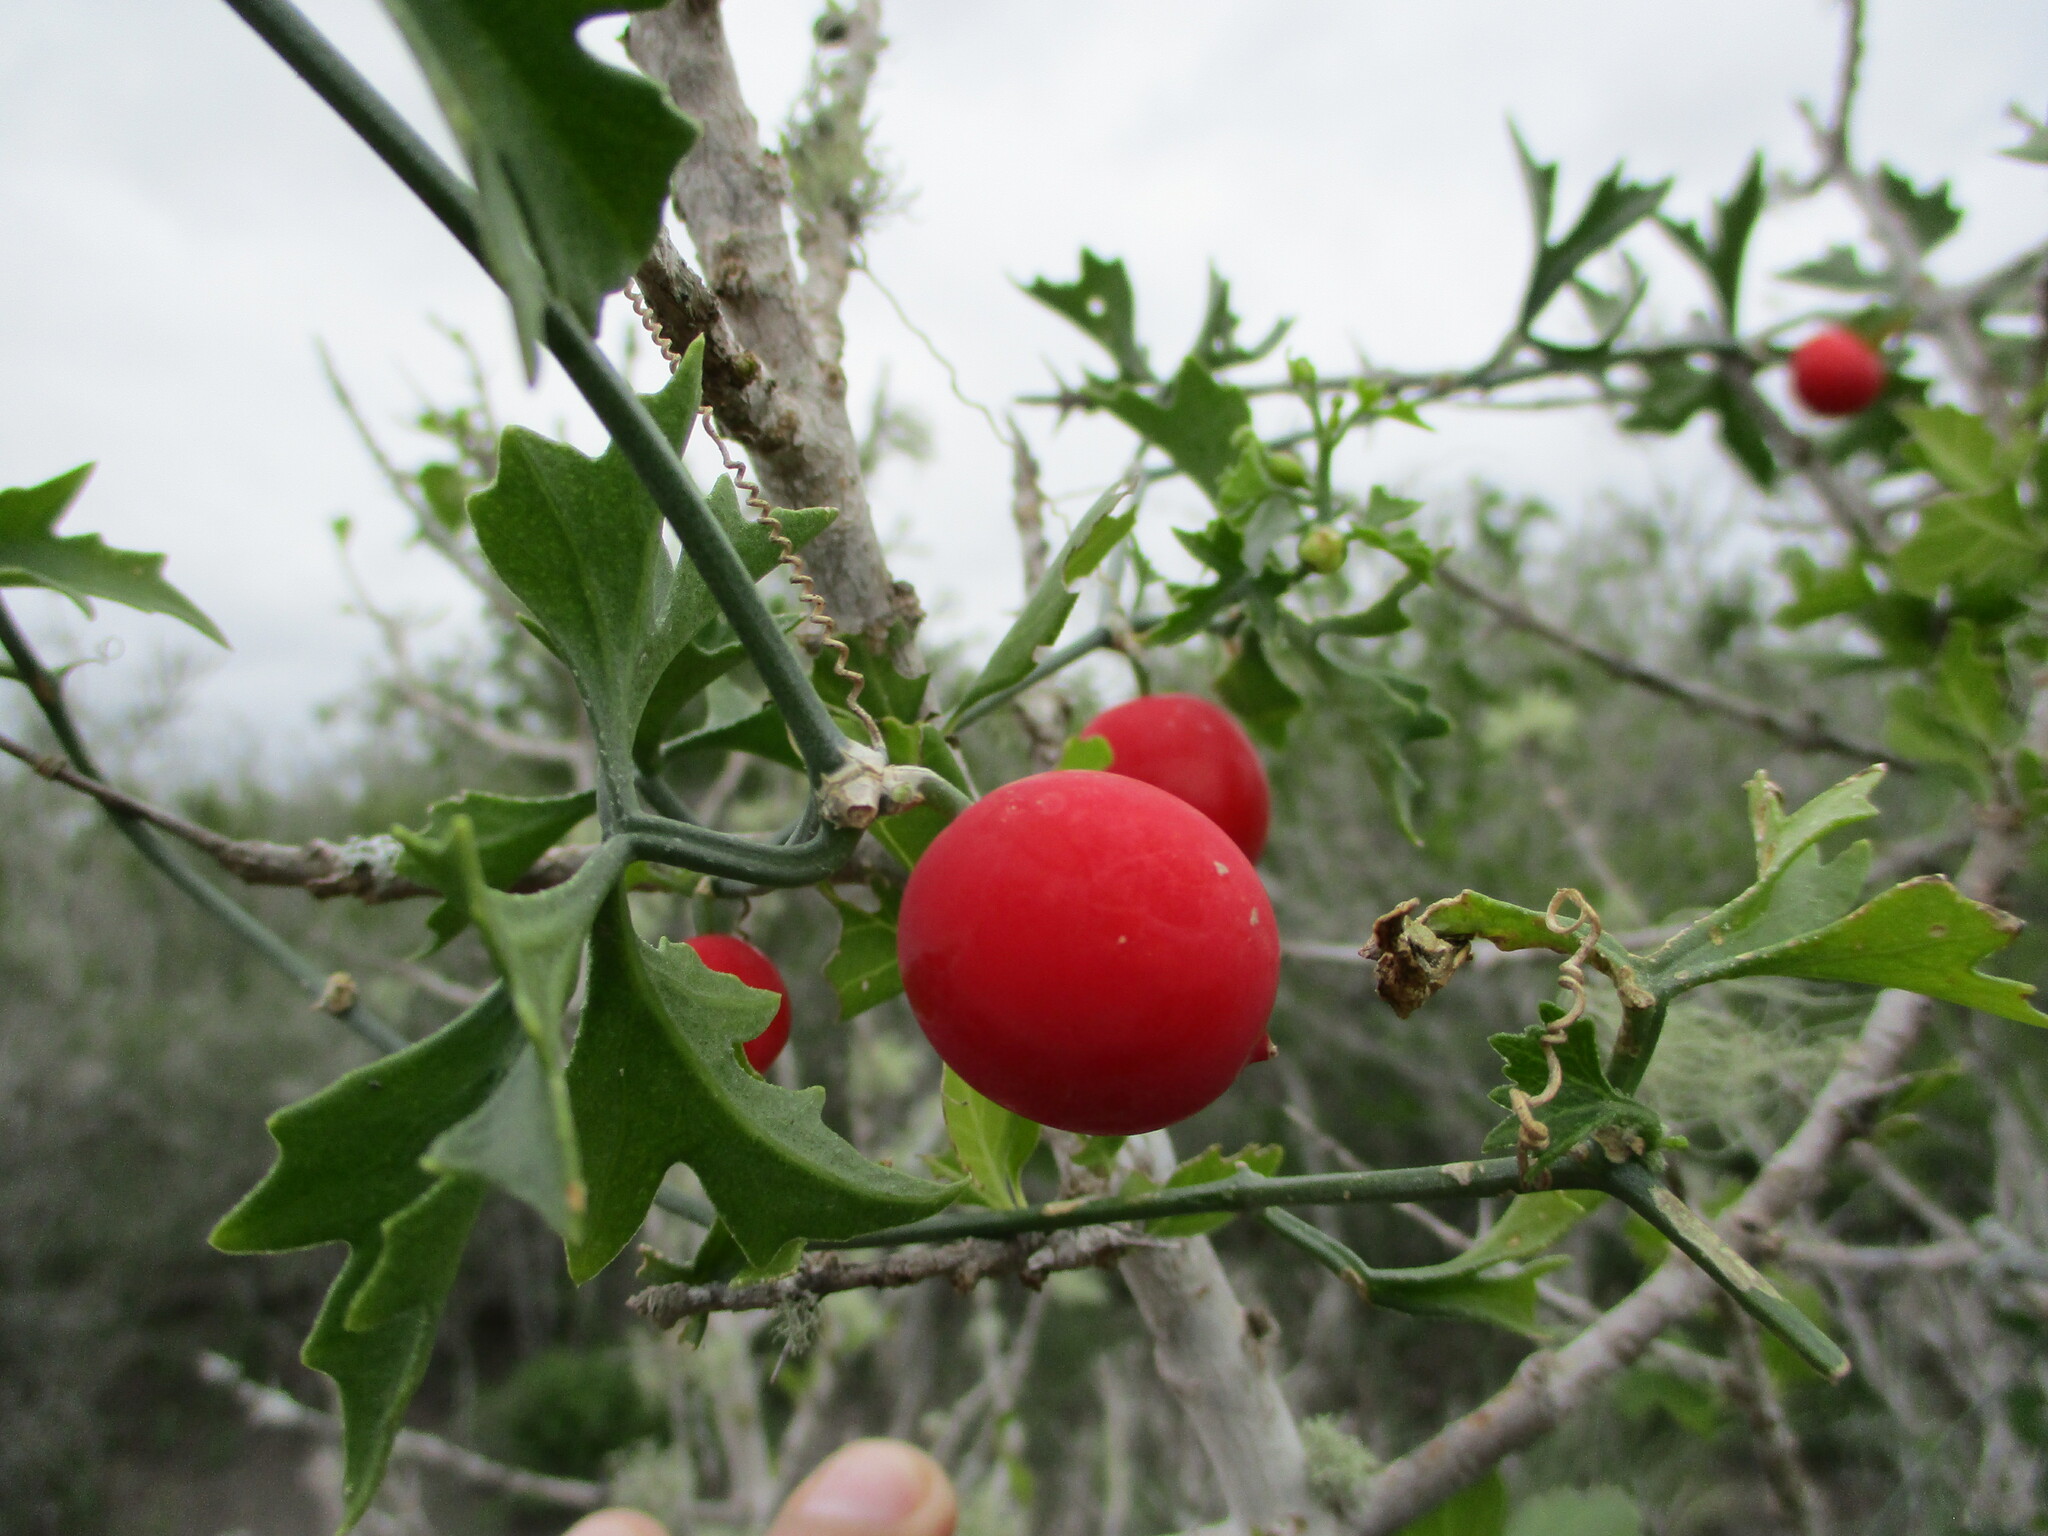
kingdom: Plantae
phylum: Tracheophyta
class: Magnoliopsida
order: Cucurbitales
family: Cucurbitaceae
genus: Ibervillea
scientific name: Ibervillea tenuisecta
